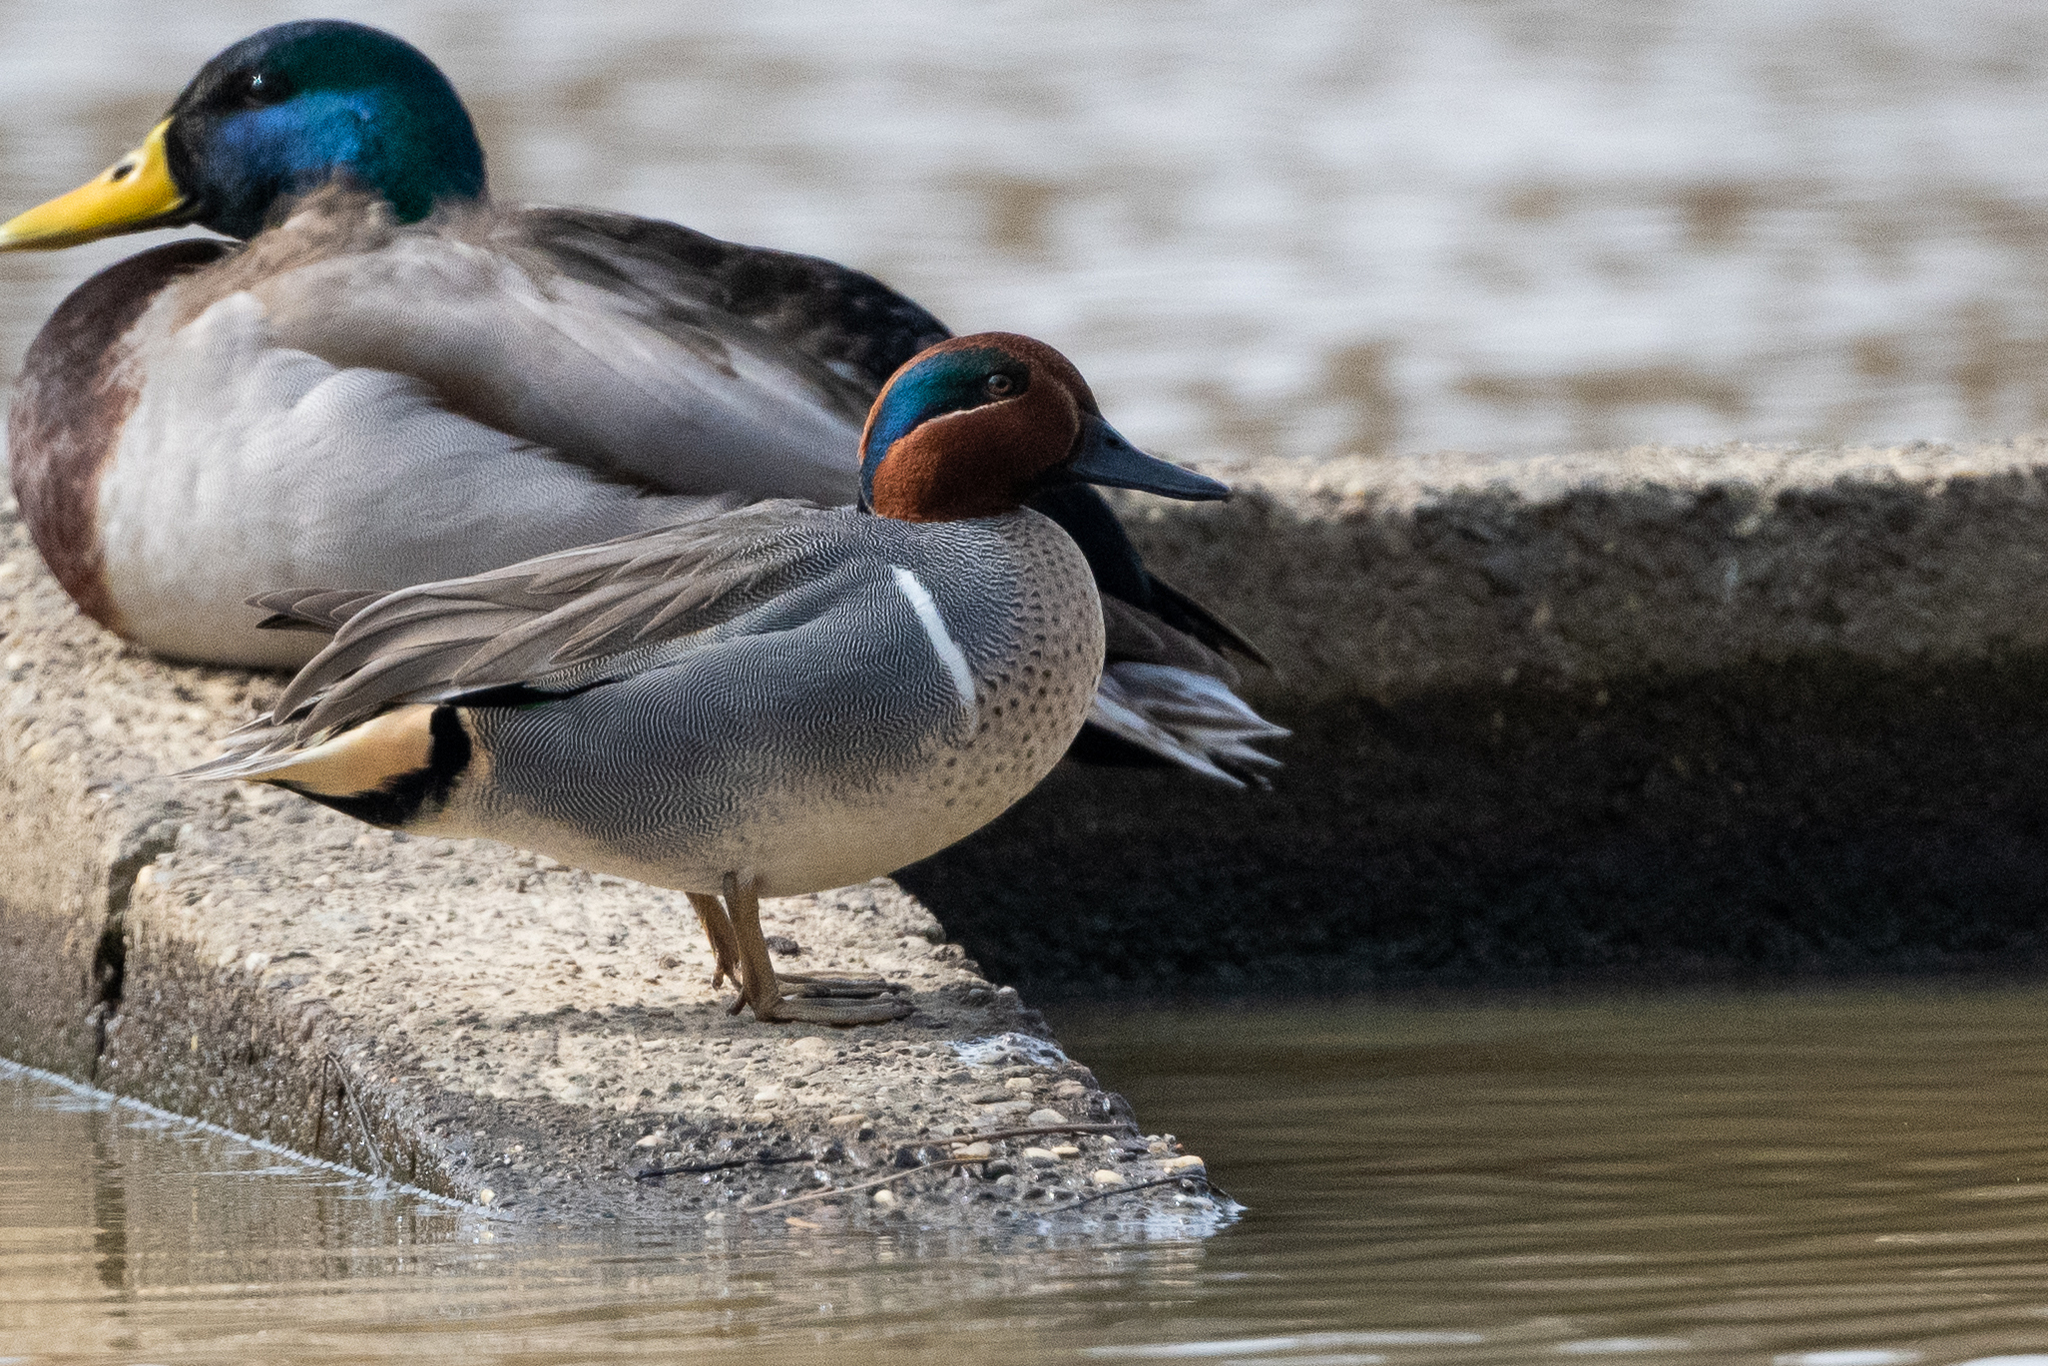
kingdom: Animalia
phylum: Chordata
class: Aves
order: Anseriformes
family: Anatidae
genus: Anas
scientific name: Anas carolinensis
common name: Green-winged teal
